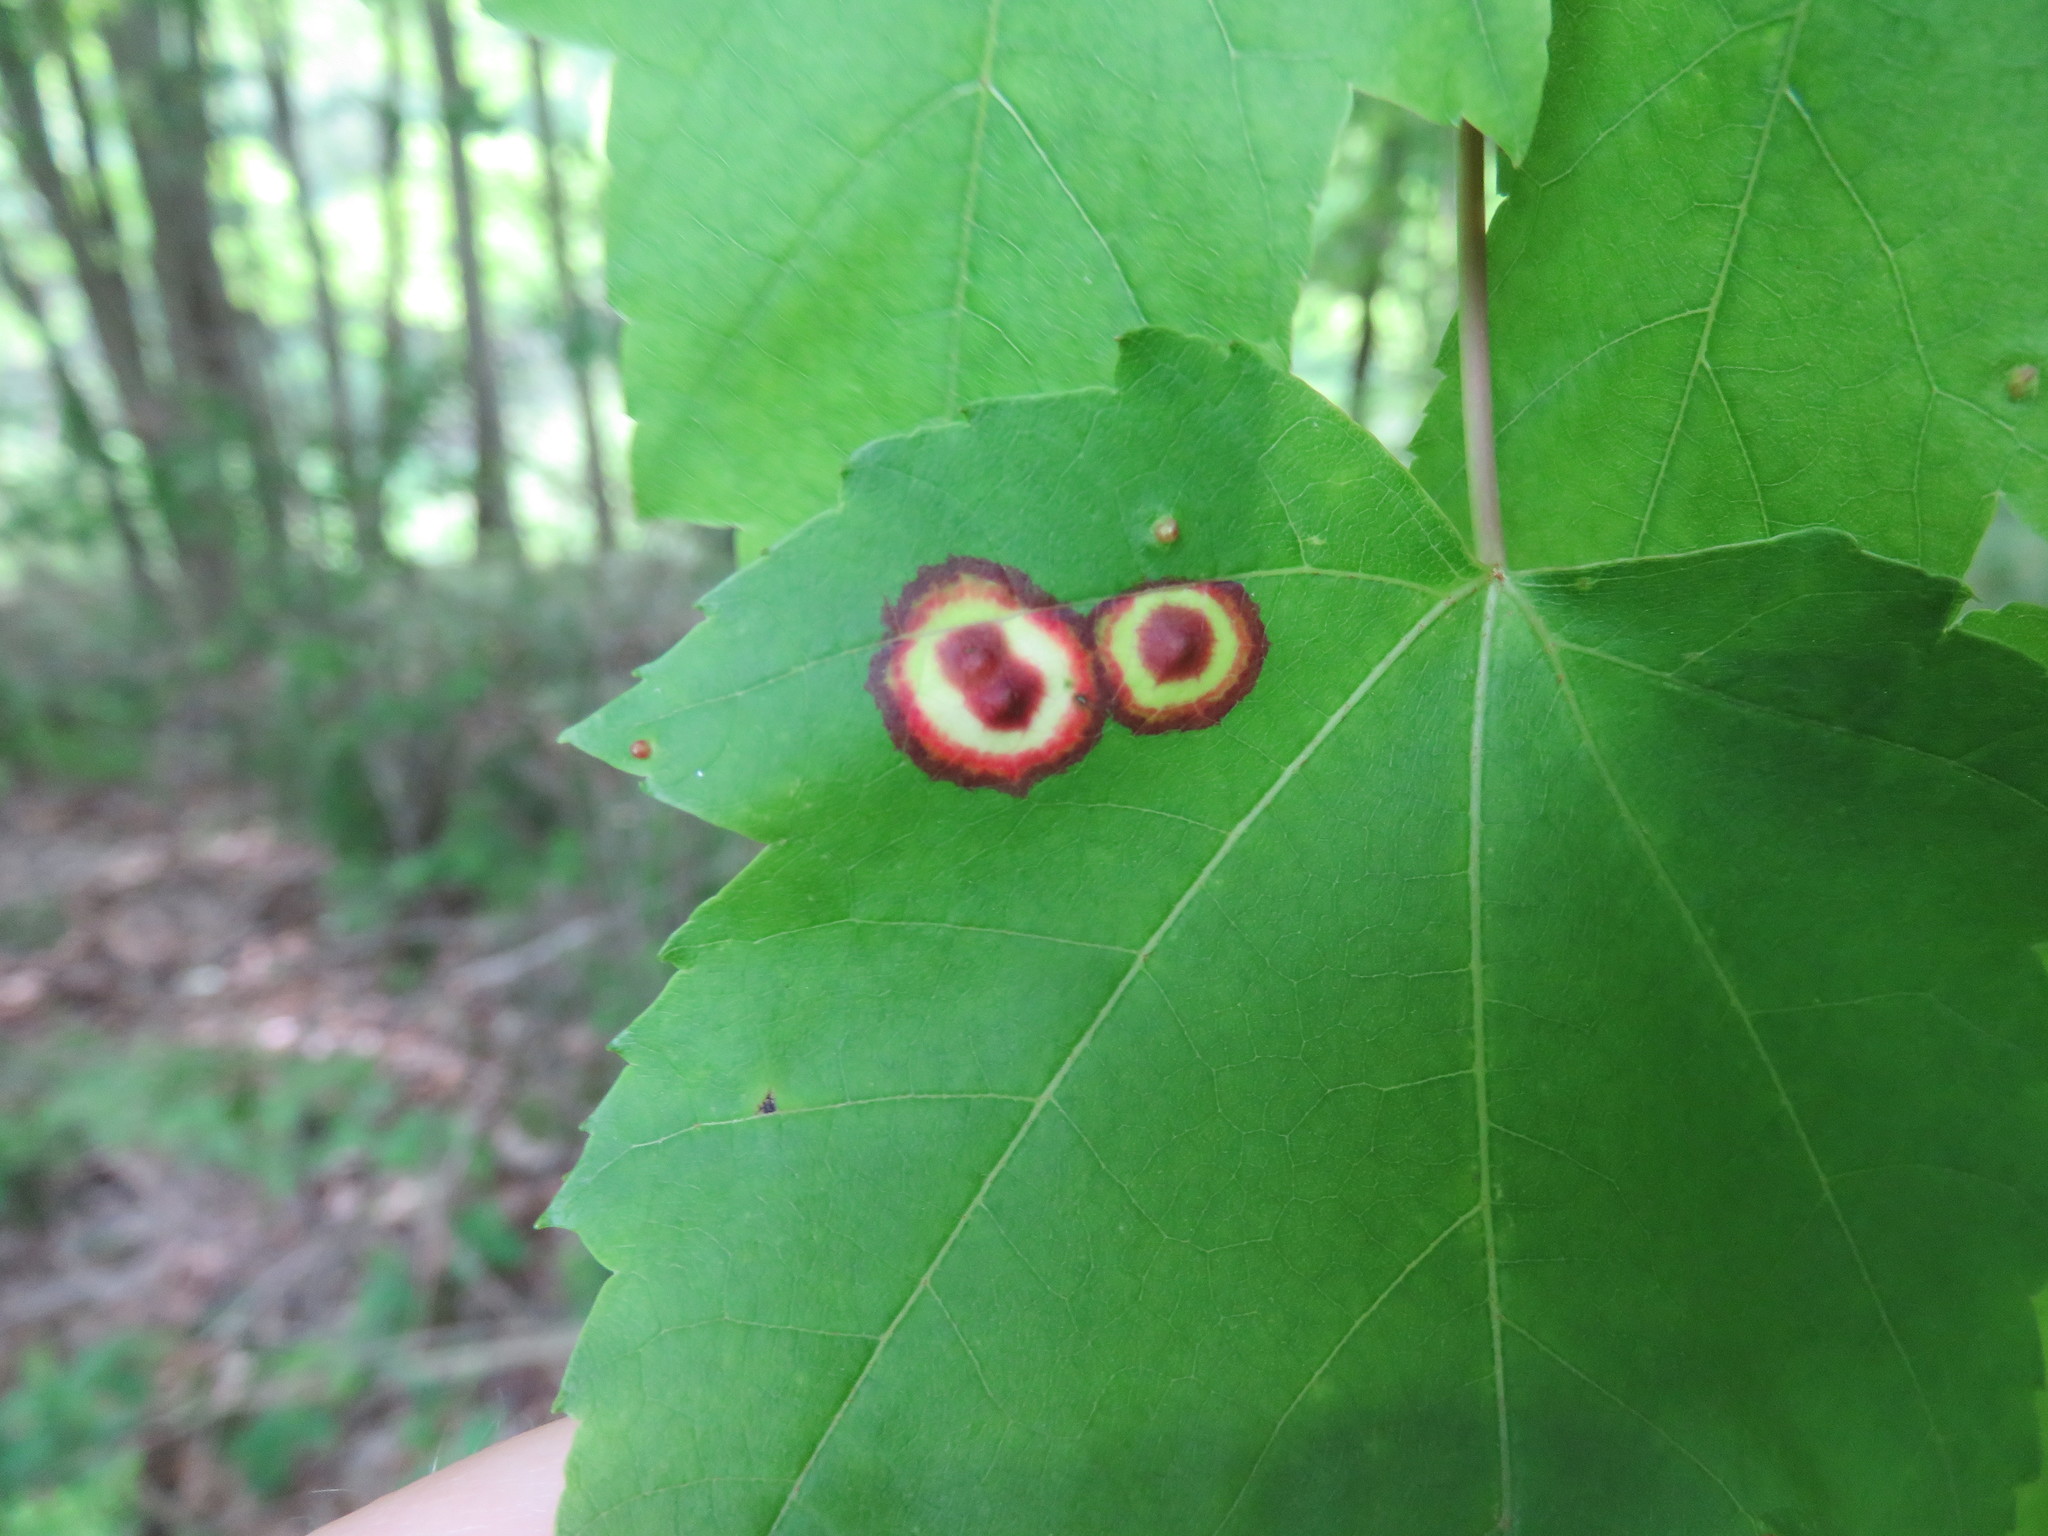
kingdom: Animalia
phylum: Arthropoda
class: Insecta
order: Diptera
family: Cecidomyiidae
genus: Acericecis
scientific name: Acericecis ocellaris
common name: Ocellate gall midge
